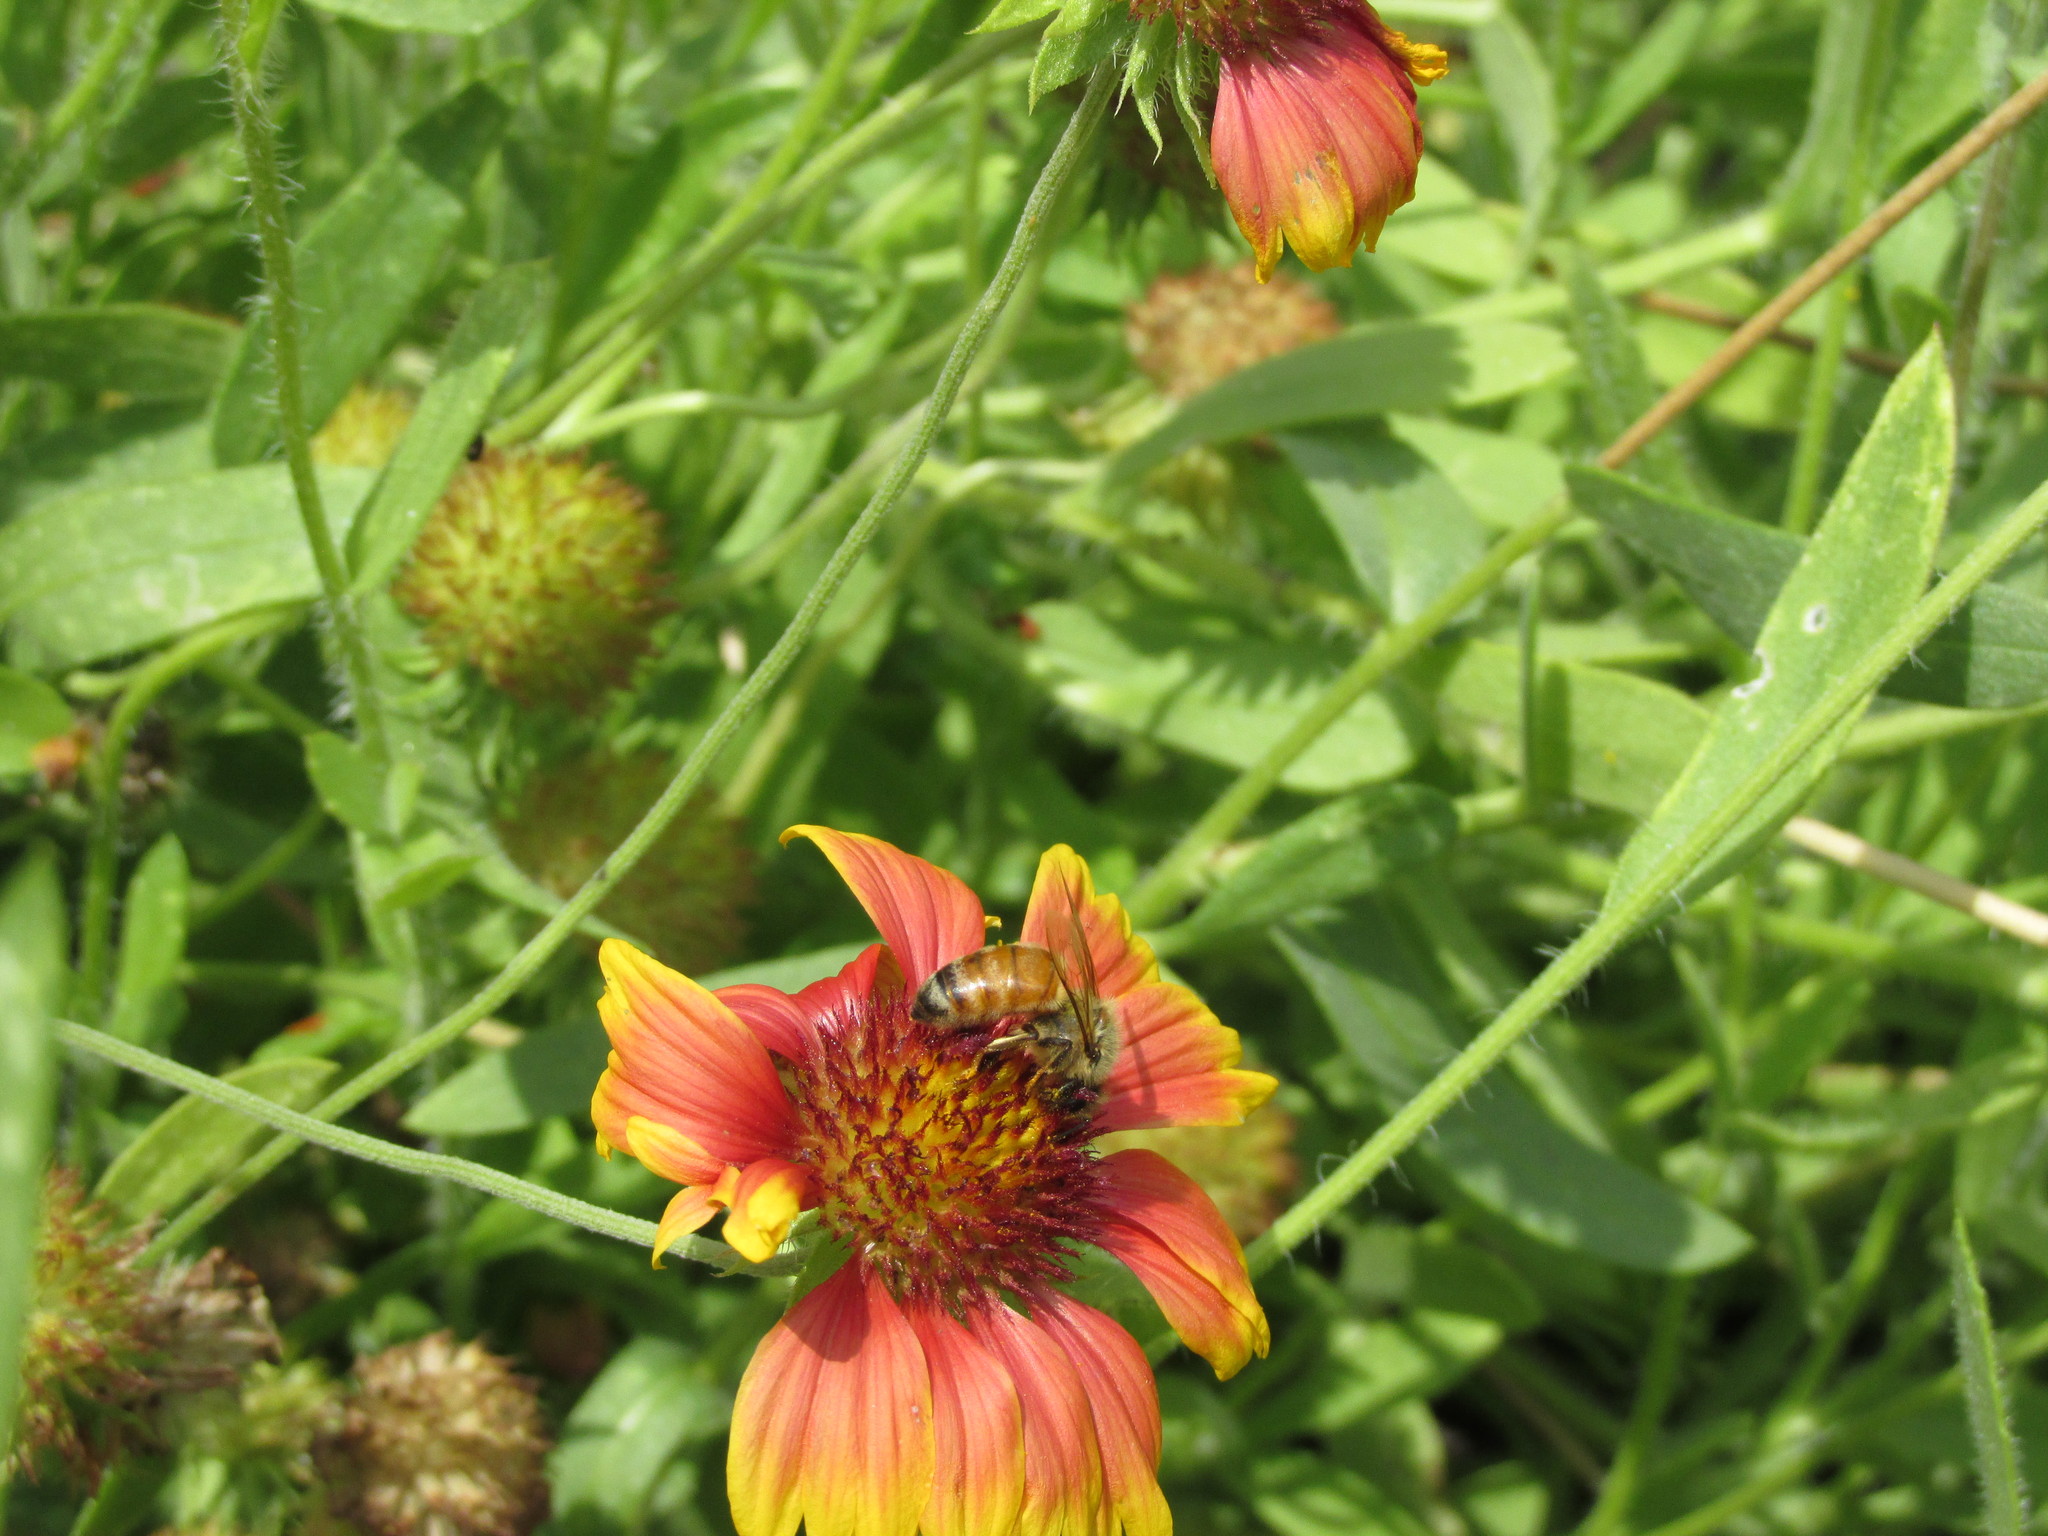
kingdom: Animalia
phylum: Arthropoda
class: Insecta
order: Hymenoptera
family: Apidae
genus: Apis
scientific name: Apis mellifera
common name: Honey bee
